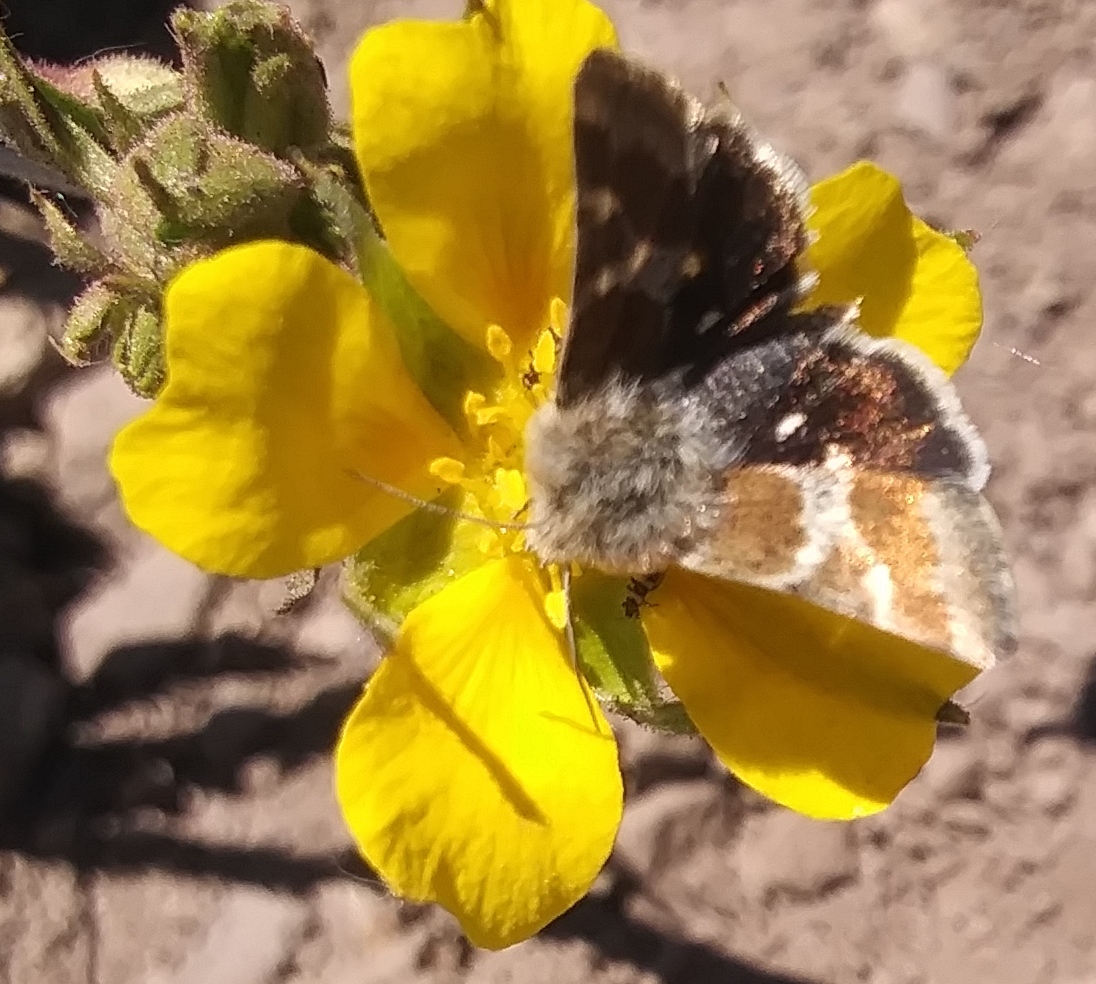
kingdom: Animalia
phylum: Arthropoda
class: Insecta
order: Lepidoptera
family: Noctuidae
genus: Schinia
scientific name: Schinia villosa
